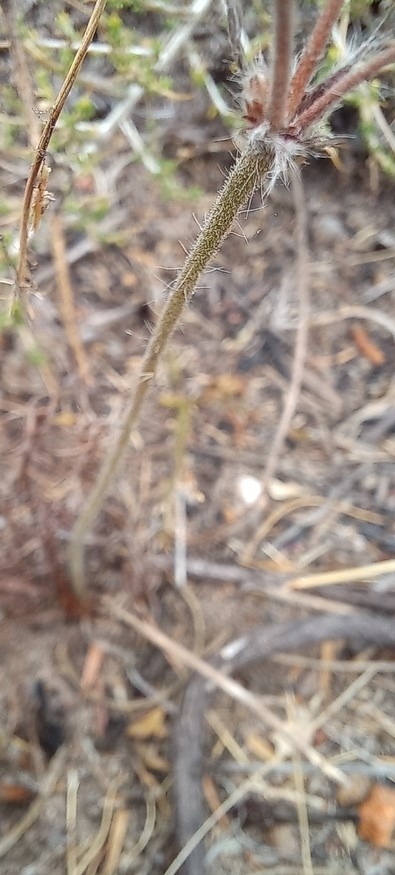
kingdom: Plantae
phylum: Tracheophyta
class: Magnoliopsida
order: Geraniales
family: Geraniaceae
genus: Pelargonium
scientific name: Pelargonium caledonicum
